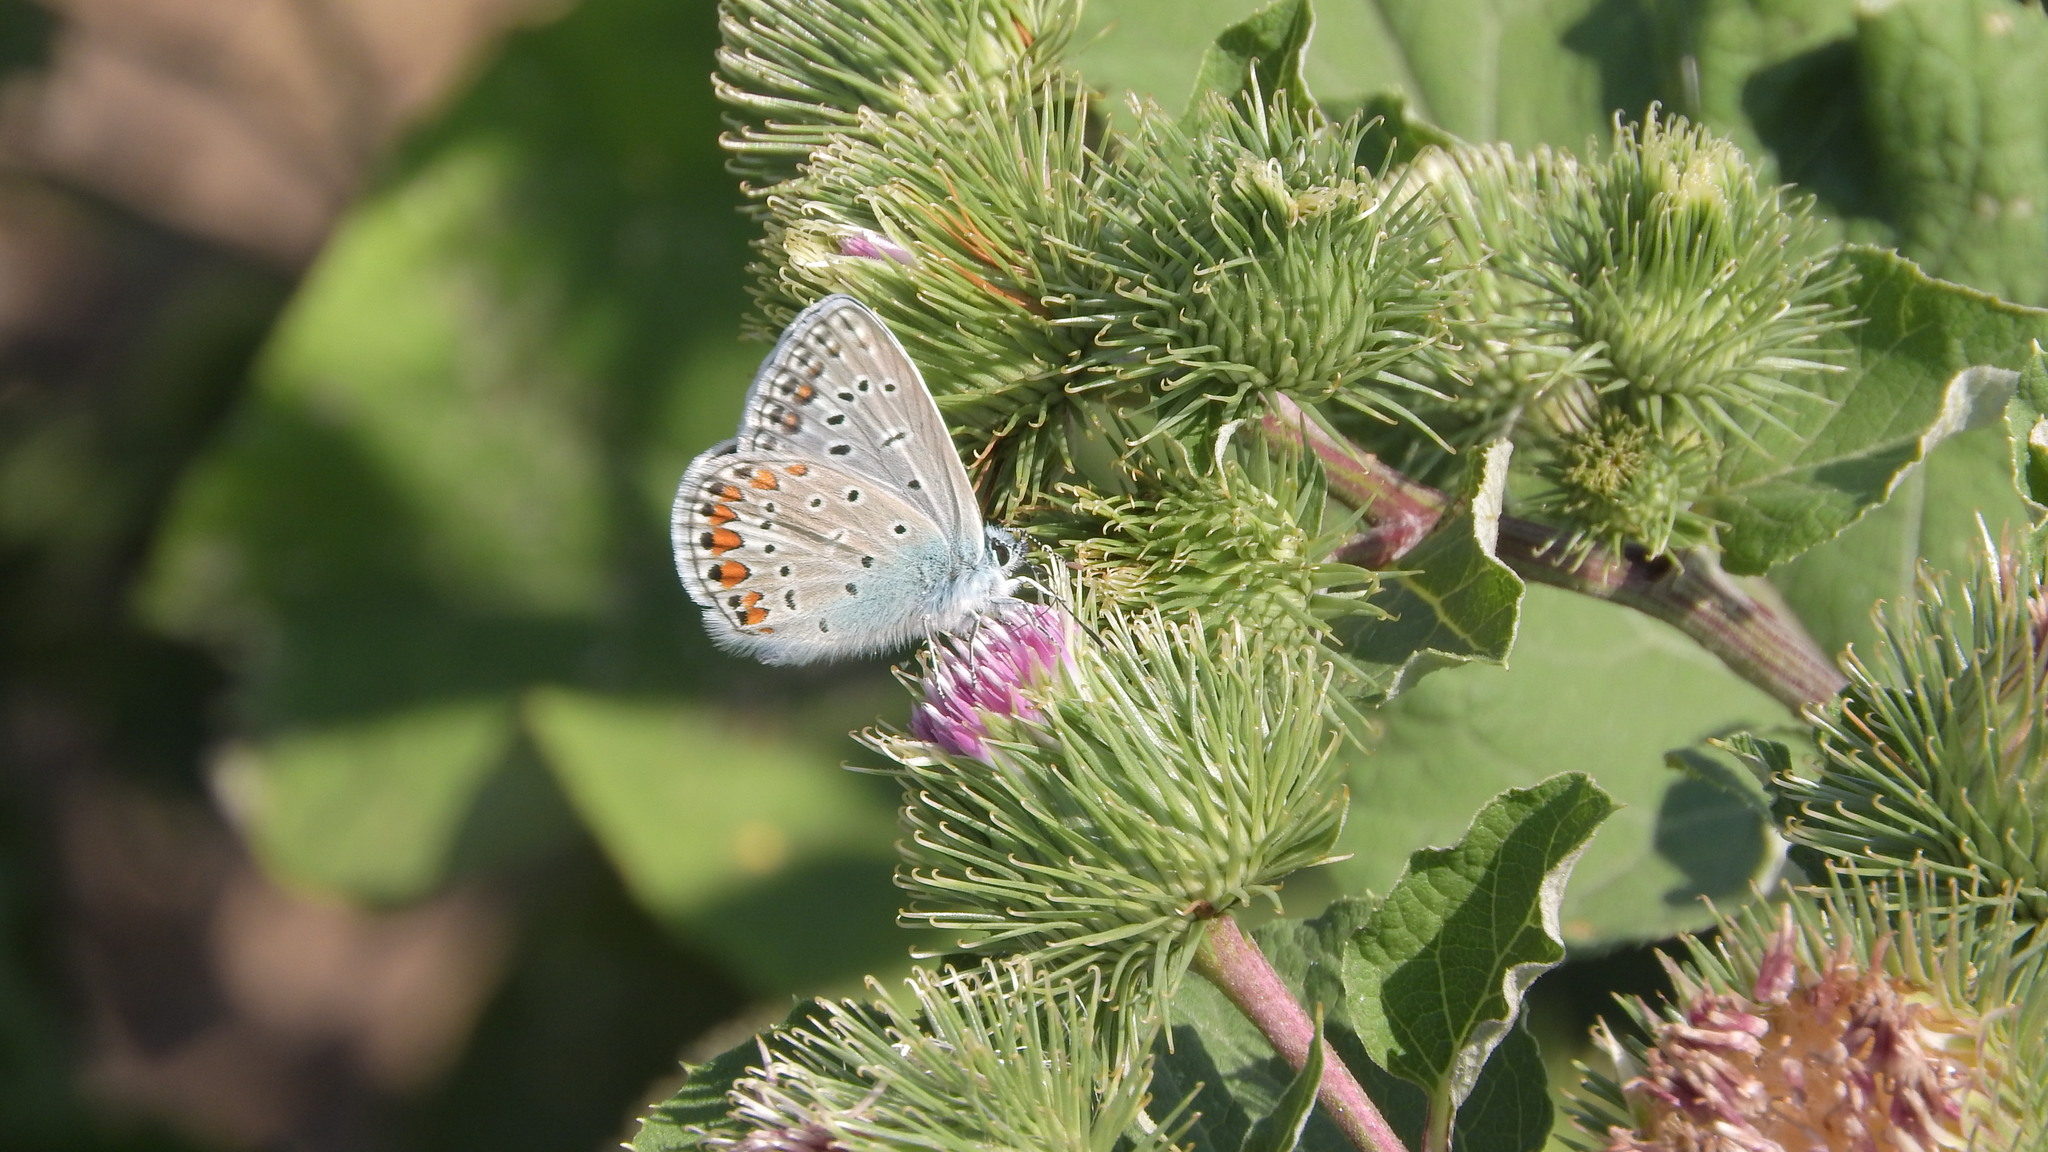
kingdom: Animalia
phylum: Arthropoda
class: Insecta
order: Lepidoptera
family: Lycaenidae
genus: Polyommatus
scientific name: Polyommatus icarus
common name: Common blue
